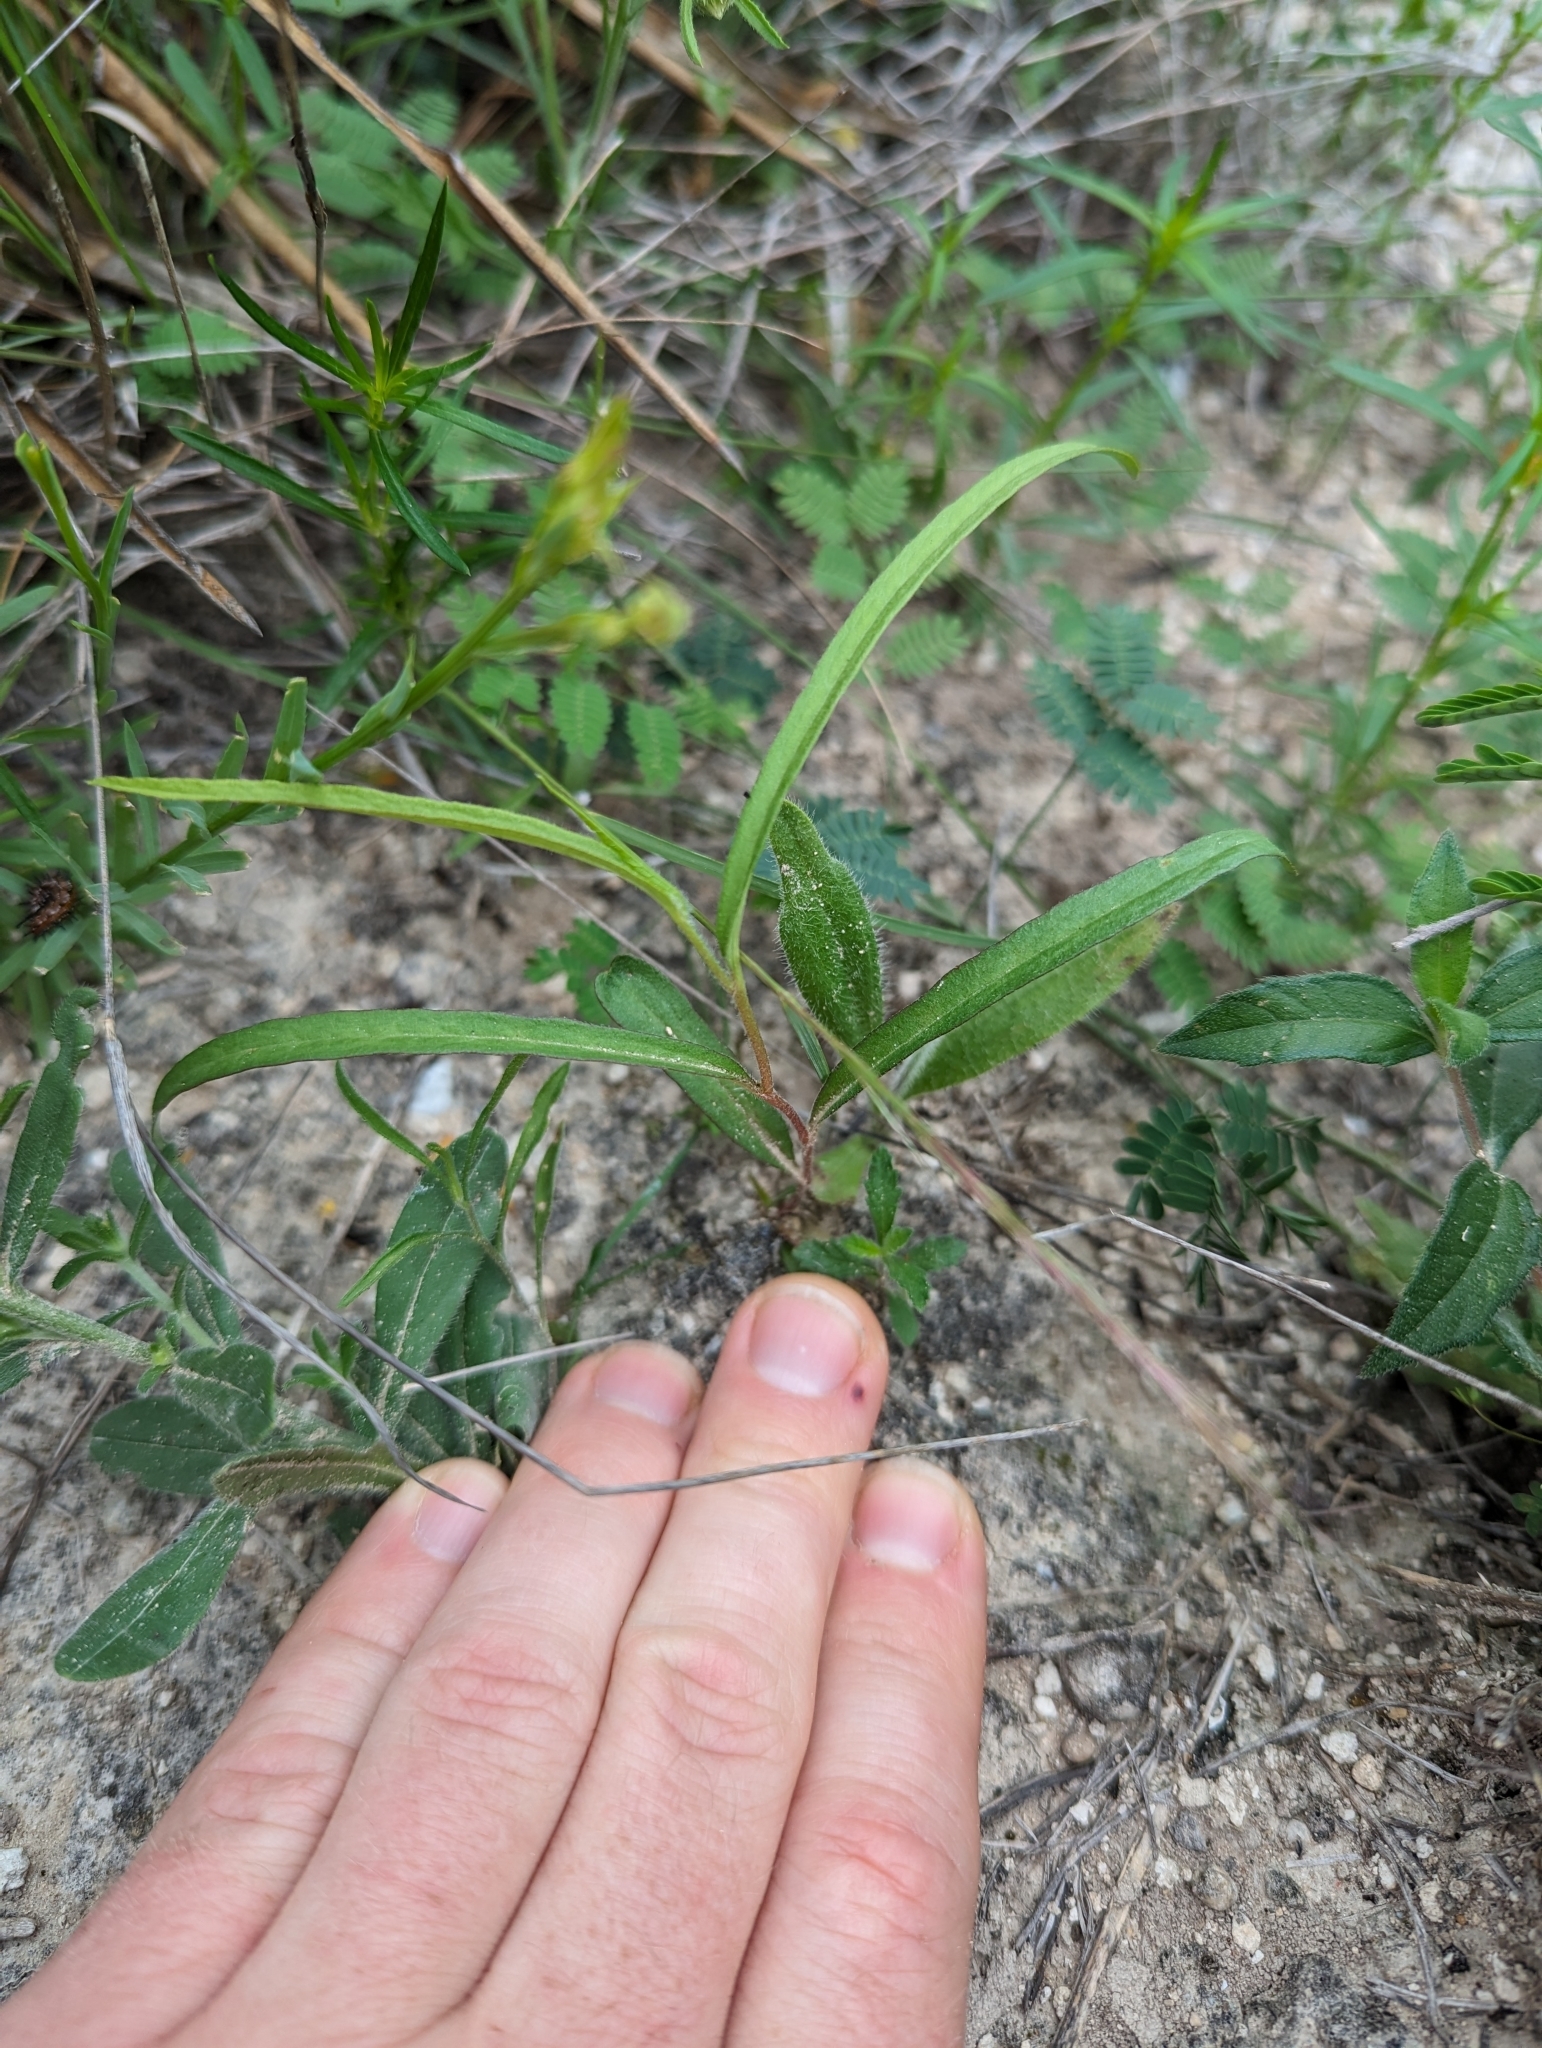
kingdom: Plantae
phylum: Tracheophyta
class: Magnoliopsida
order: Piperales
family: Aristolochiaceae
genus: Aristolochia
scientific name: Aristolochia erecta
